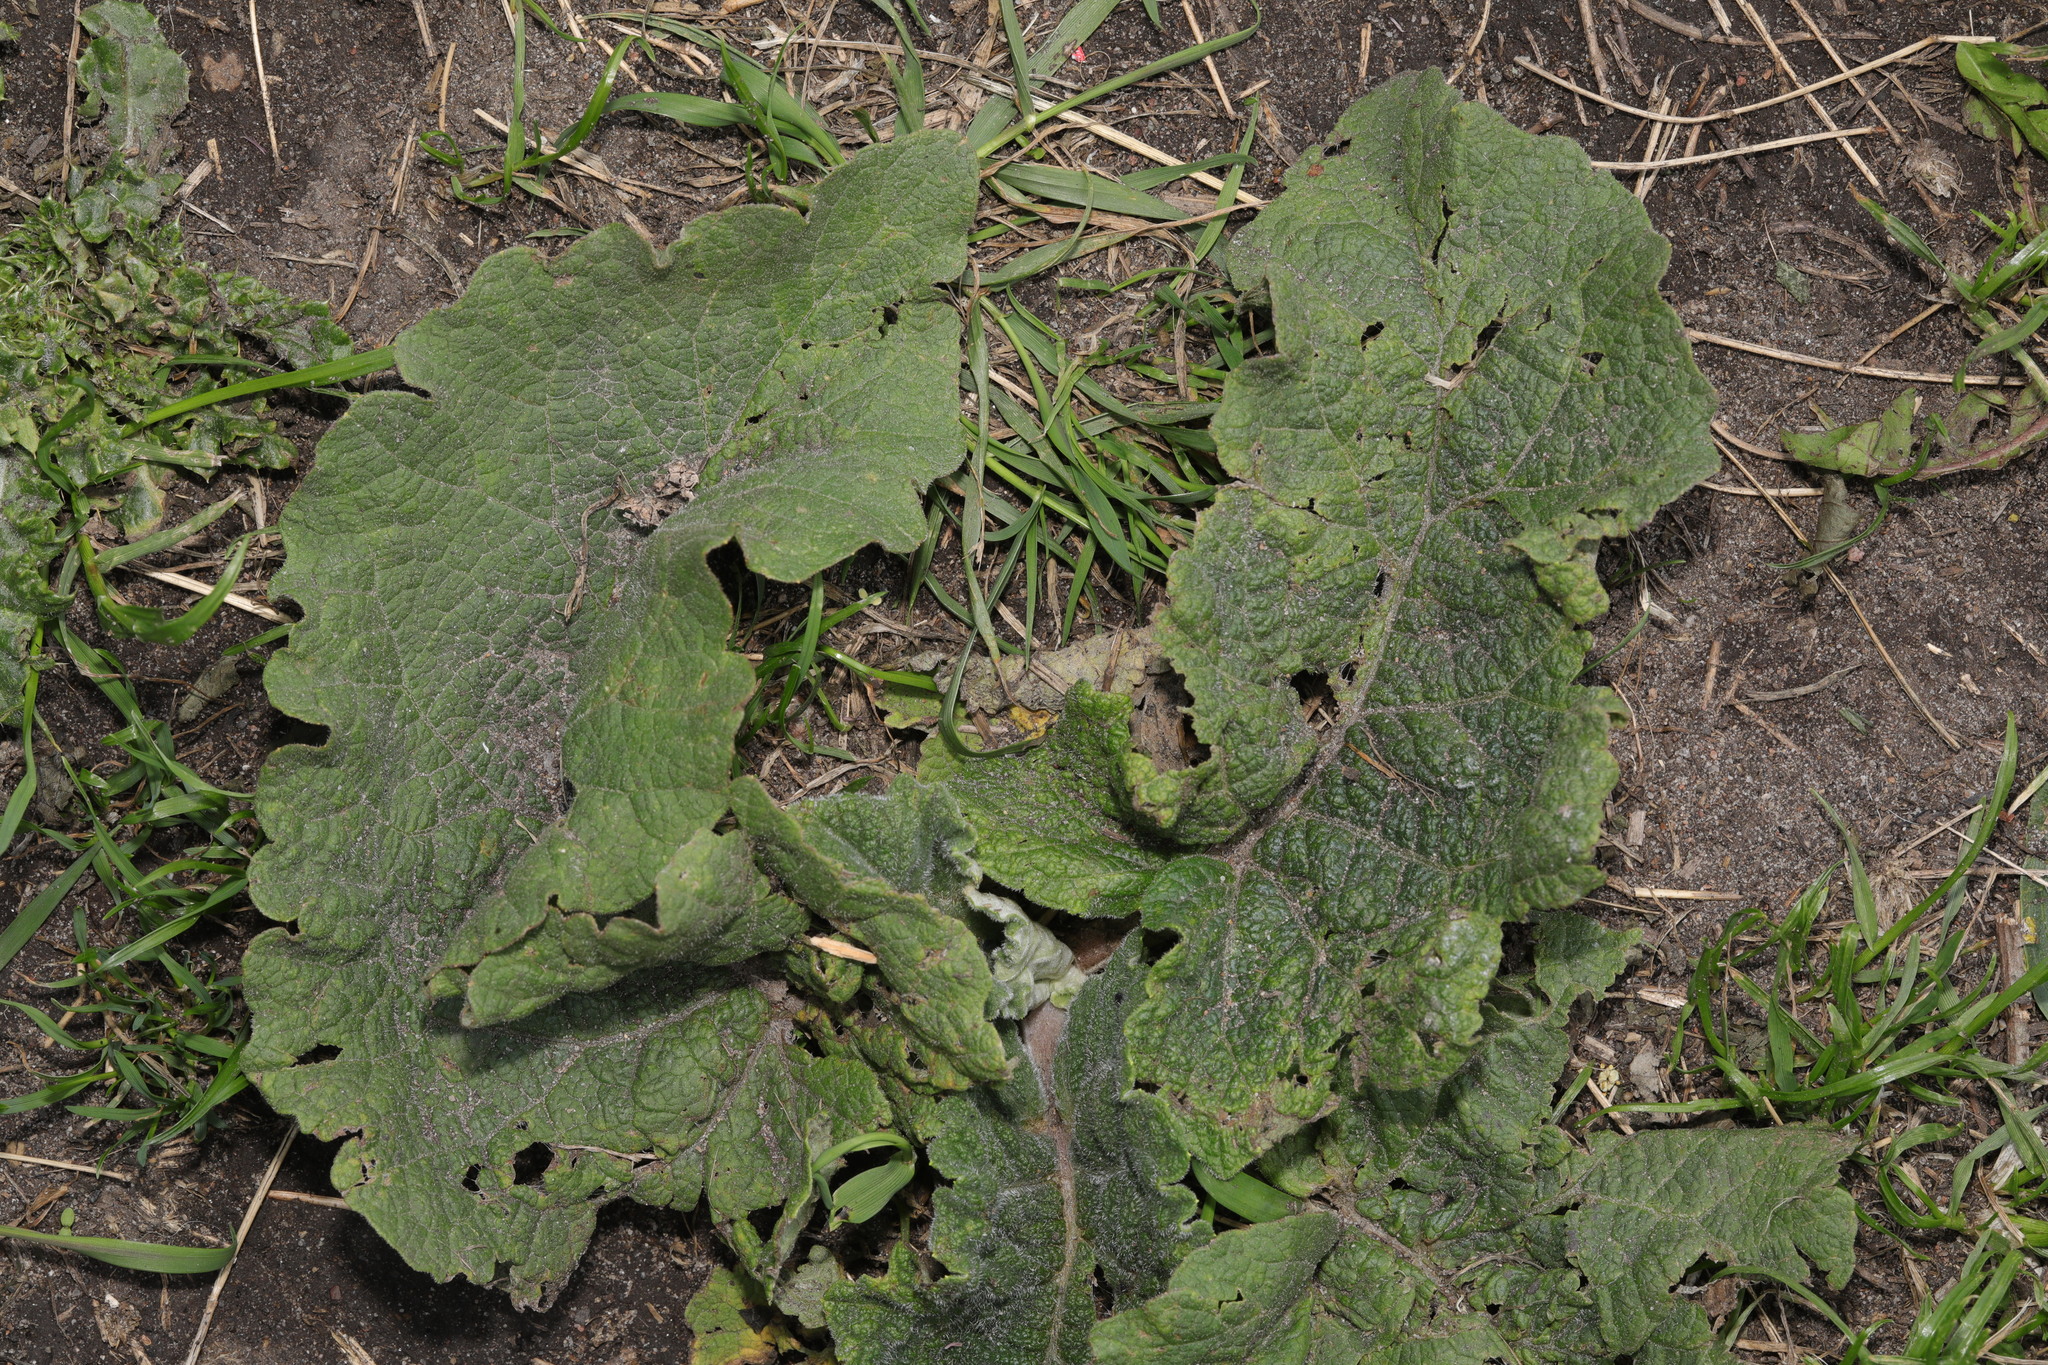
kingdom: Plantae
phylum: Tracheophyta
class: Magnoliopsida
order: Asterales
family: Asteraceae
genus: Arctium
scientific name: Arctium minus
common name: Lesser burdock
